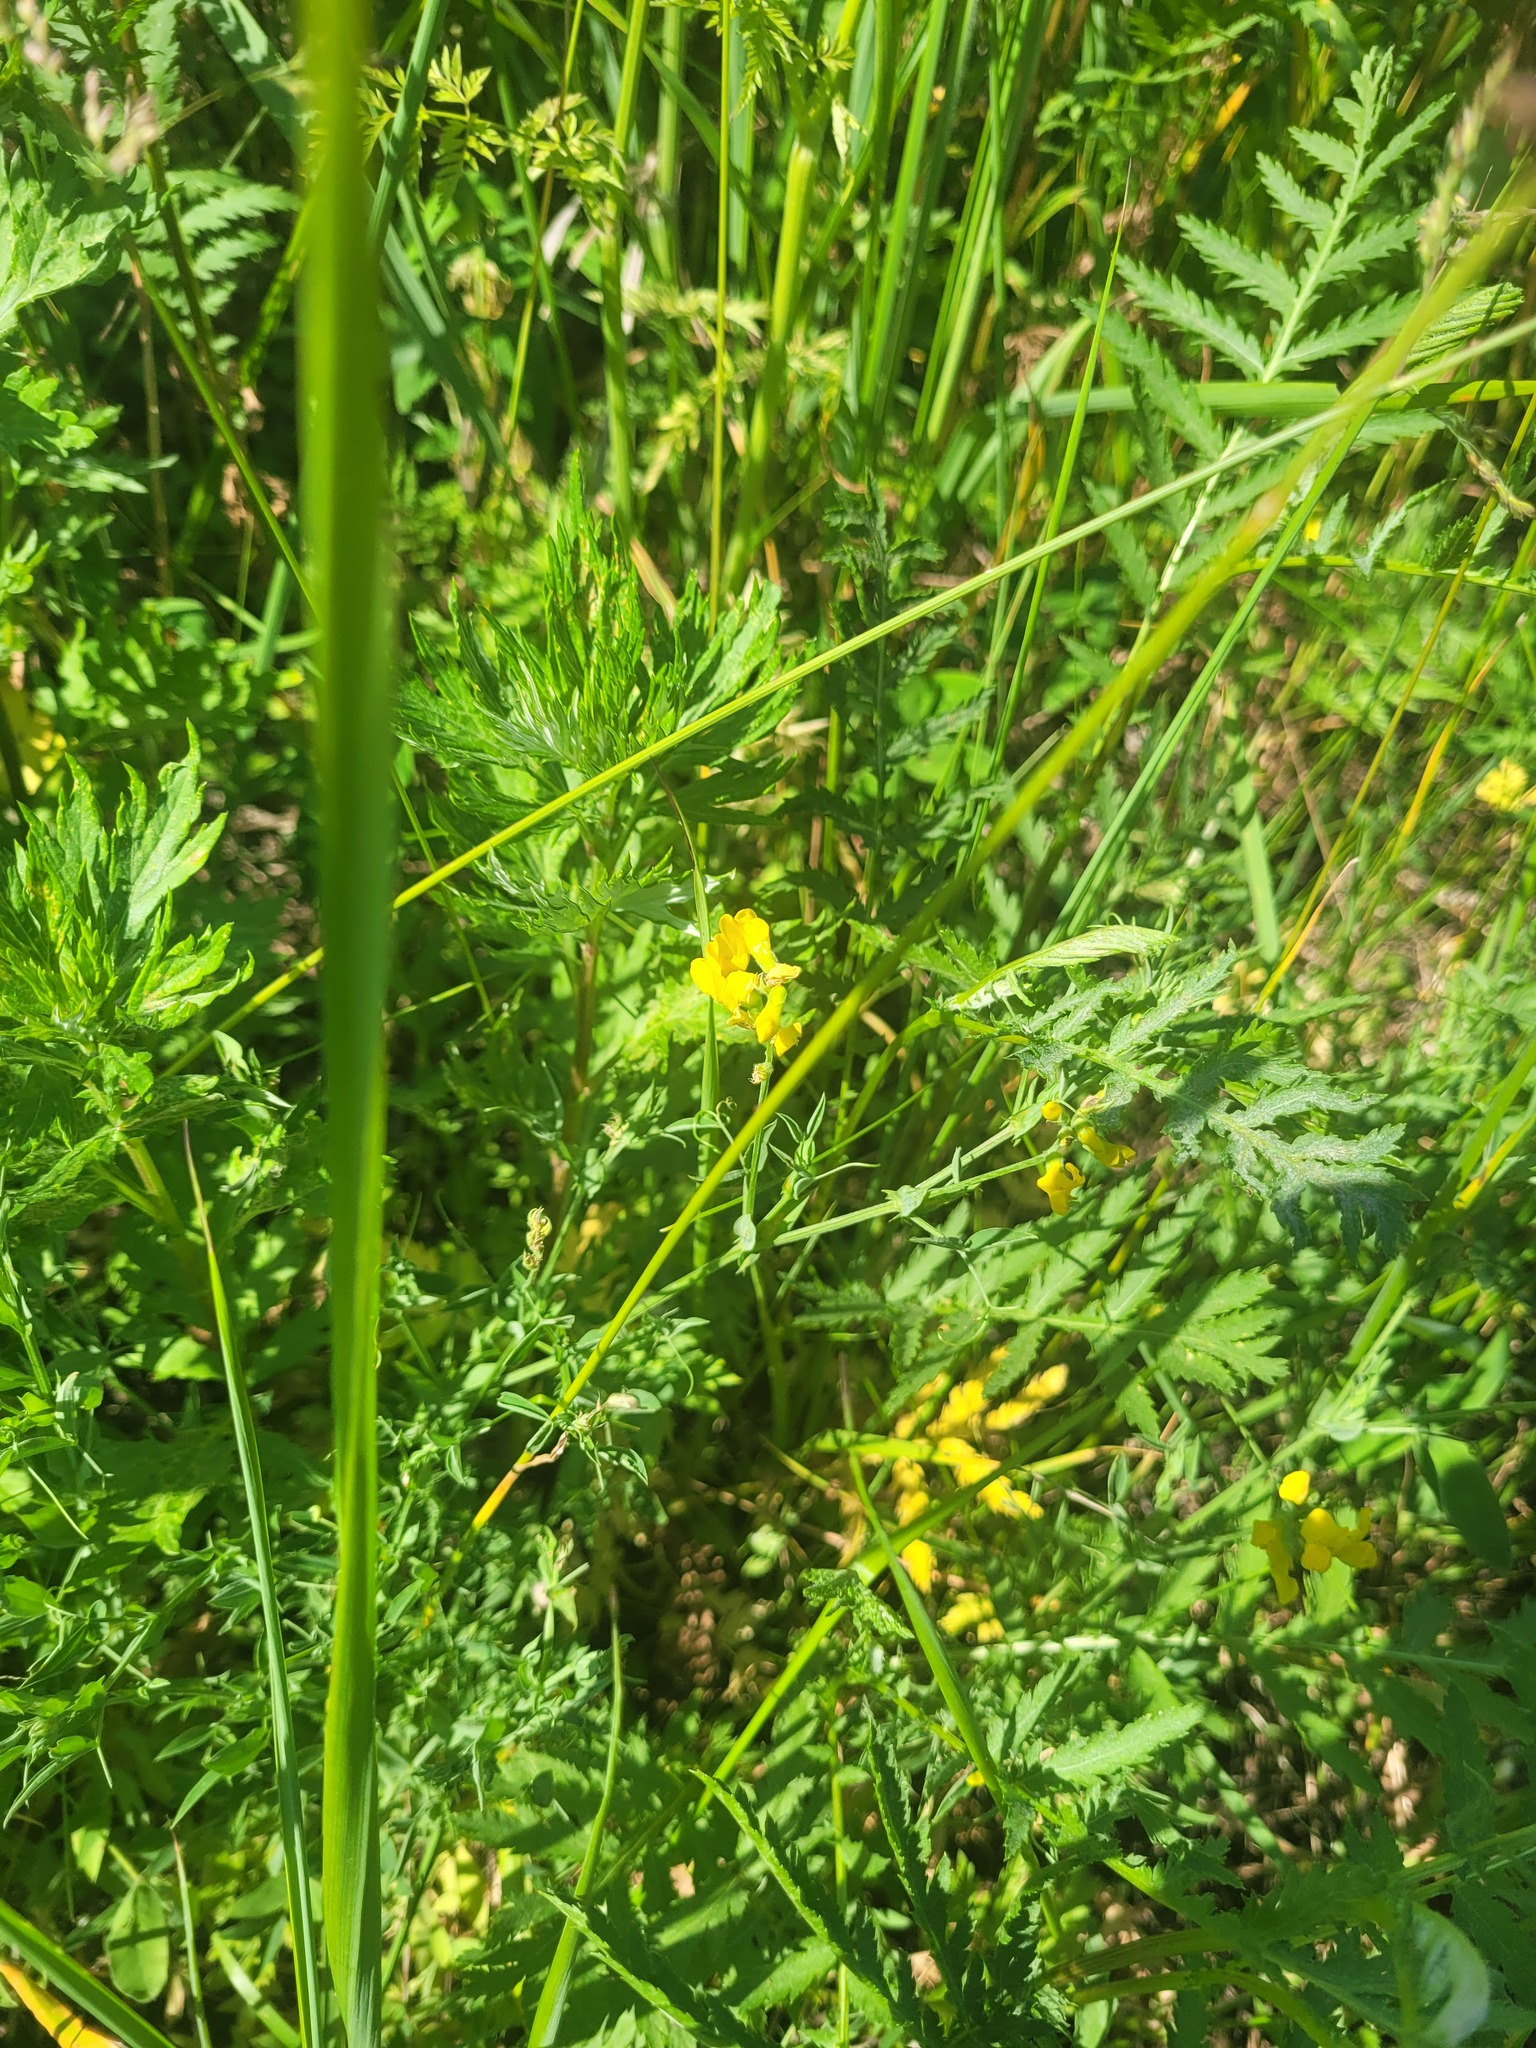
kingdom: Plantae
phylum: Tracheophyta
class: Magnoliopsida
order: Fabales
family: Fabaceae
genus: Lathyrus
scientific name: Lathyrus pratensis
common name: Meadow vetchling
